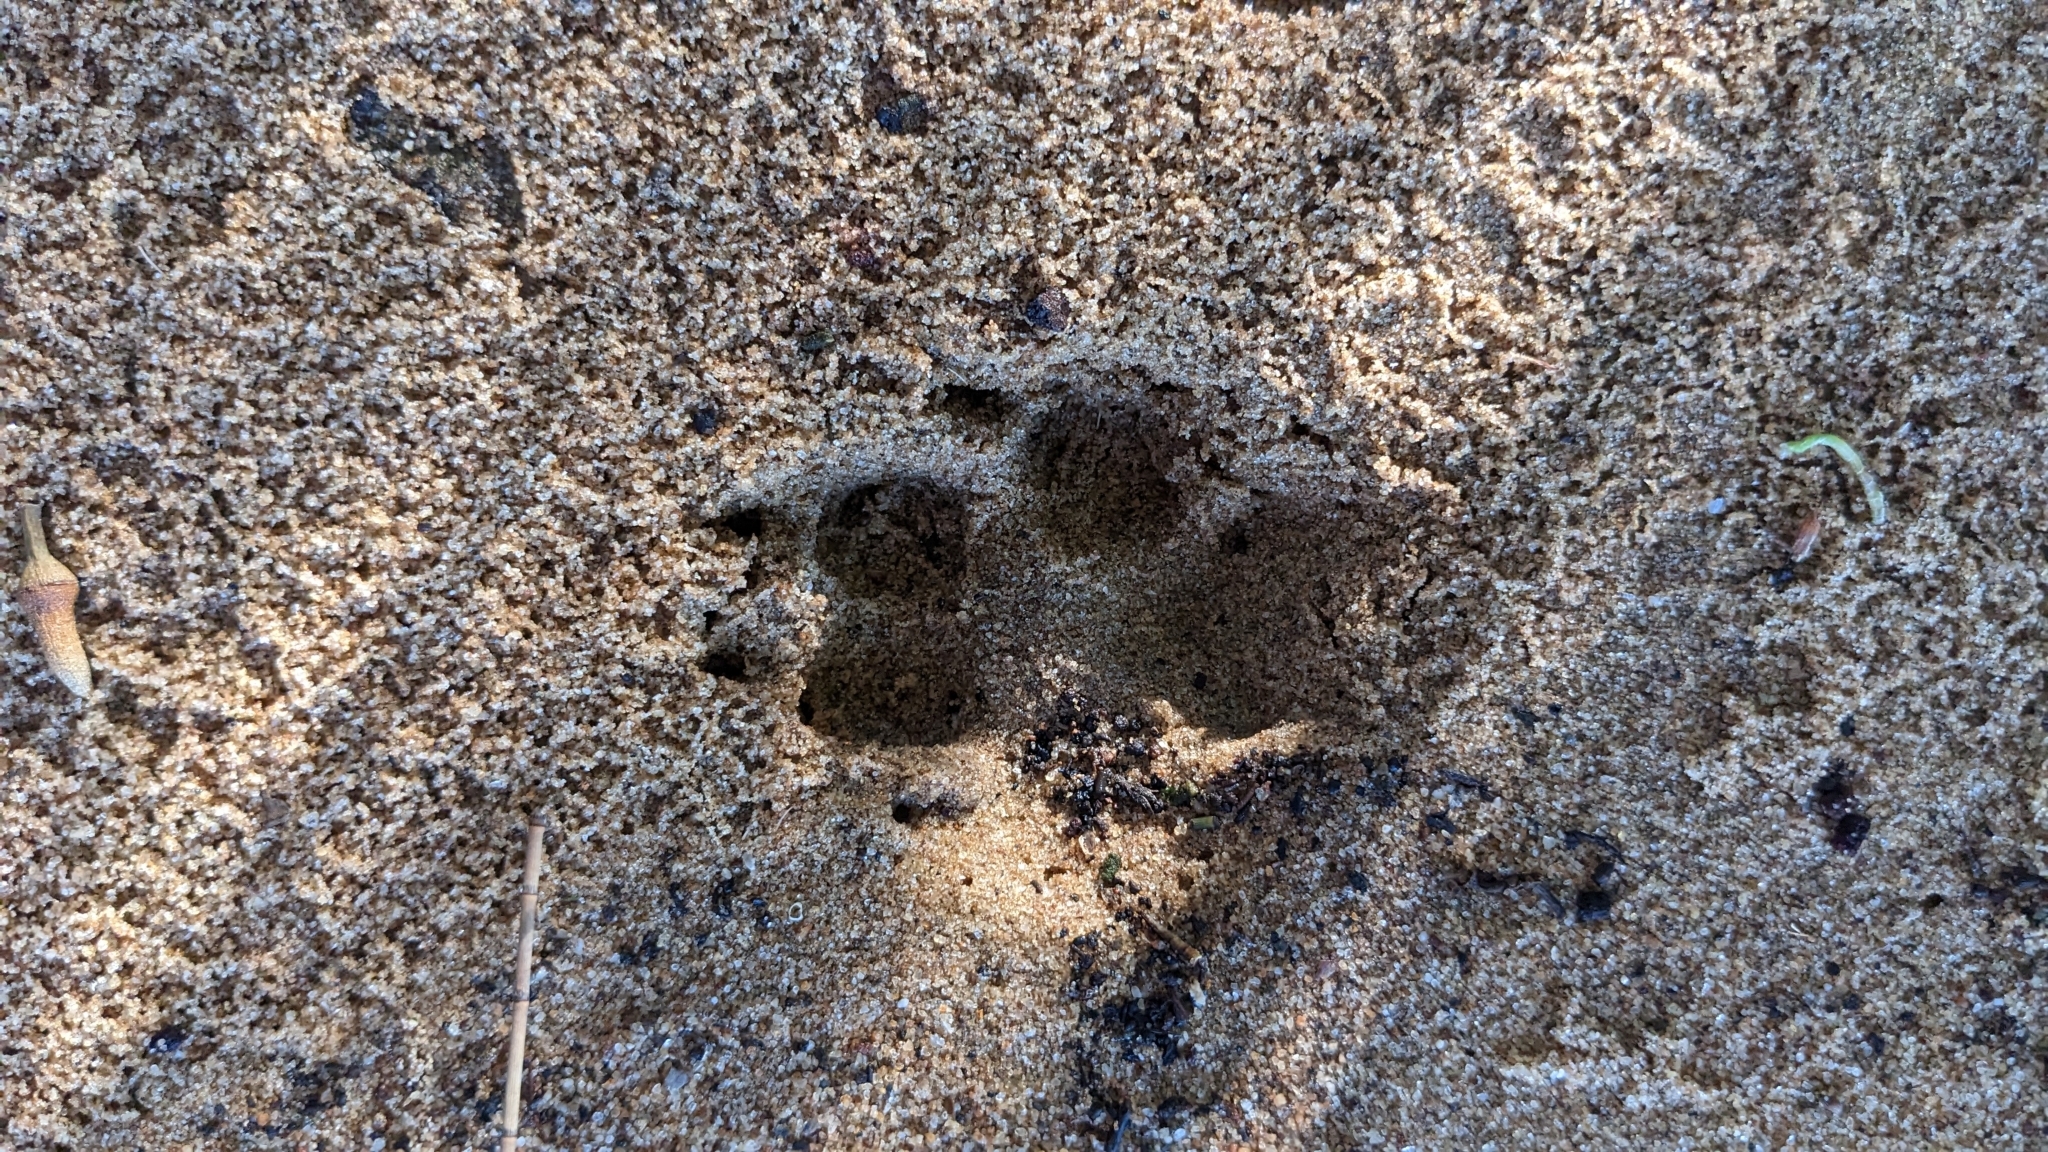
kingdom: Animalia
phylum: Chordata
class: Mammalia
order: Carnivora
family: Canidae
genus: Vulpes
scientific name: Vulpes vulpes
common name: Red fox
